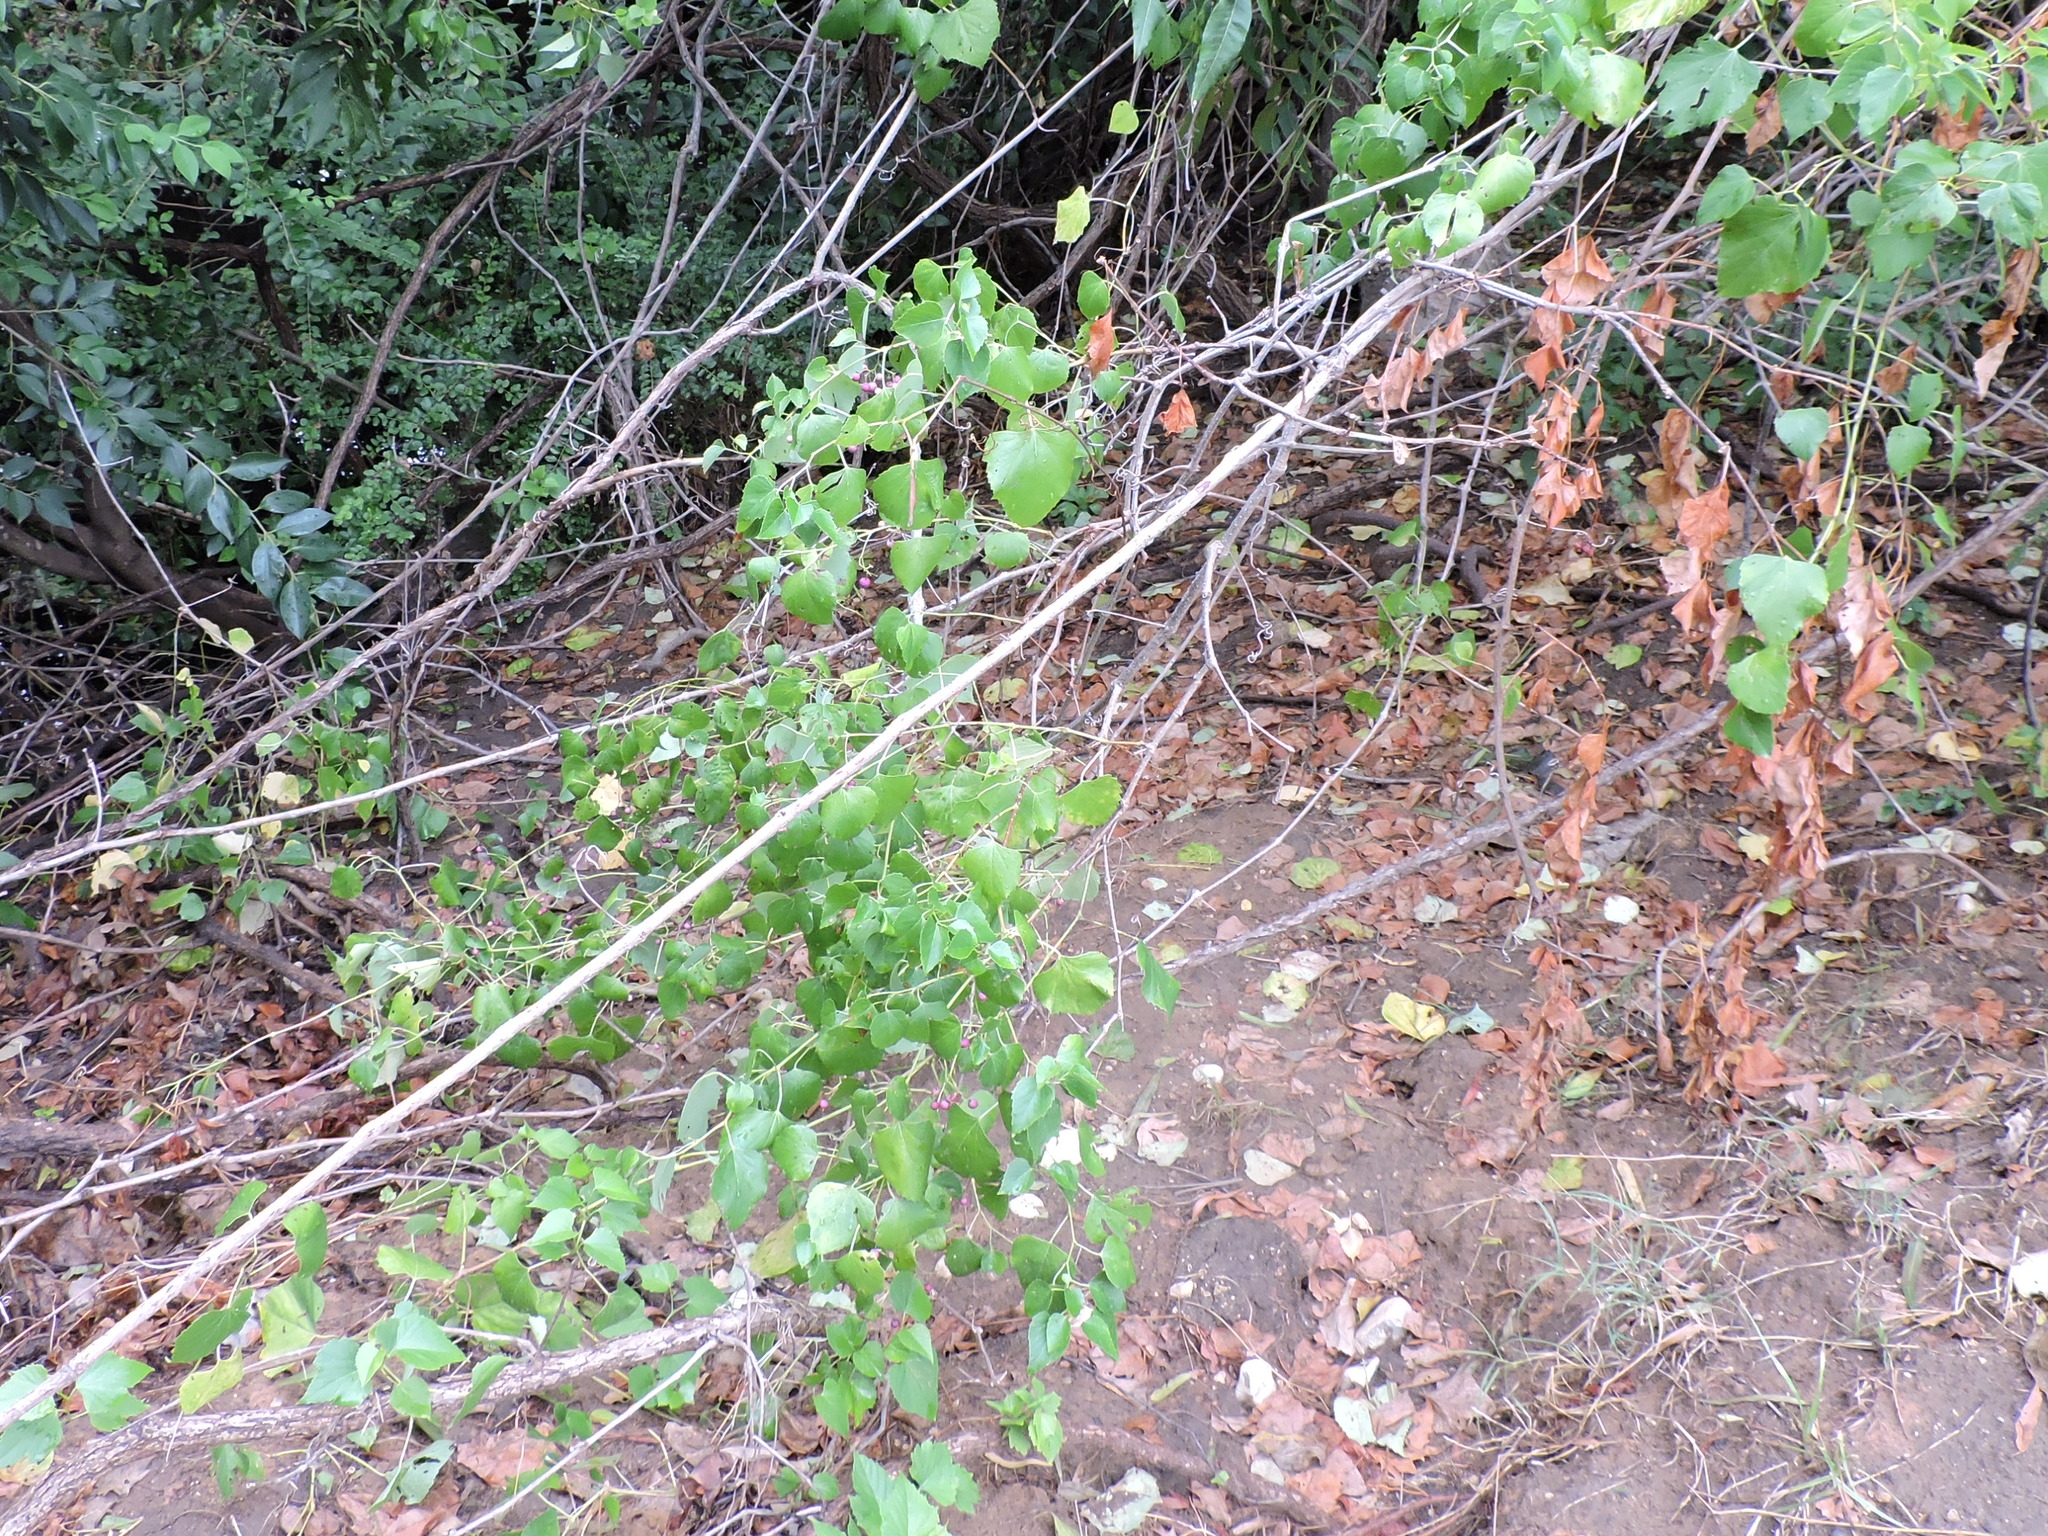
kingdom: Plantae
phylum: Tracheophyta
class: Magnoliopsida
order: Vitales
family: Vitaceae
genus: Ampelopsis
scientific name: Ampelopsis cordata
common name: Heart-leaf ampelopsis
